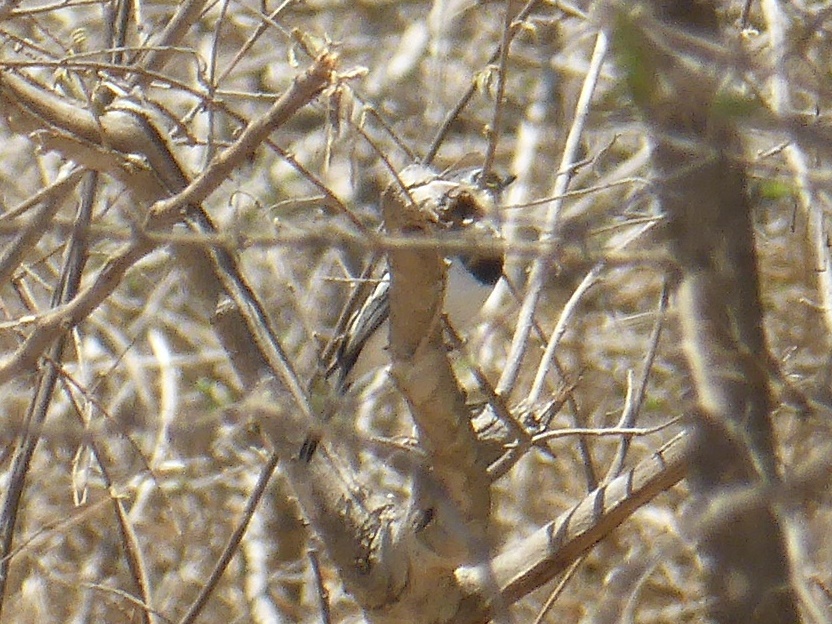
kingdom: Animalia
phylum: Chordata
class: Aves
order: Passeriformes
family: Platysteiridae
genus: Batis
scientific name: Batis molitor
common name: Chinspot batis
